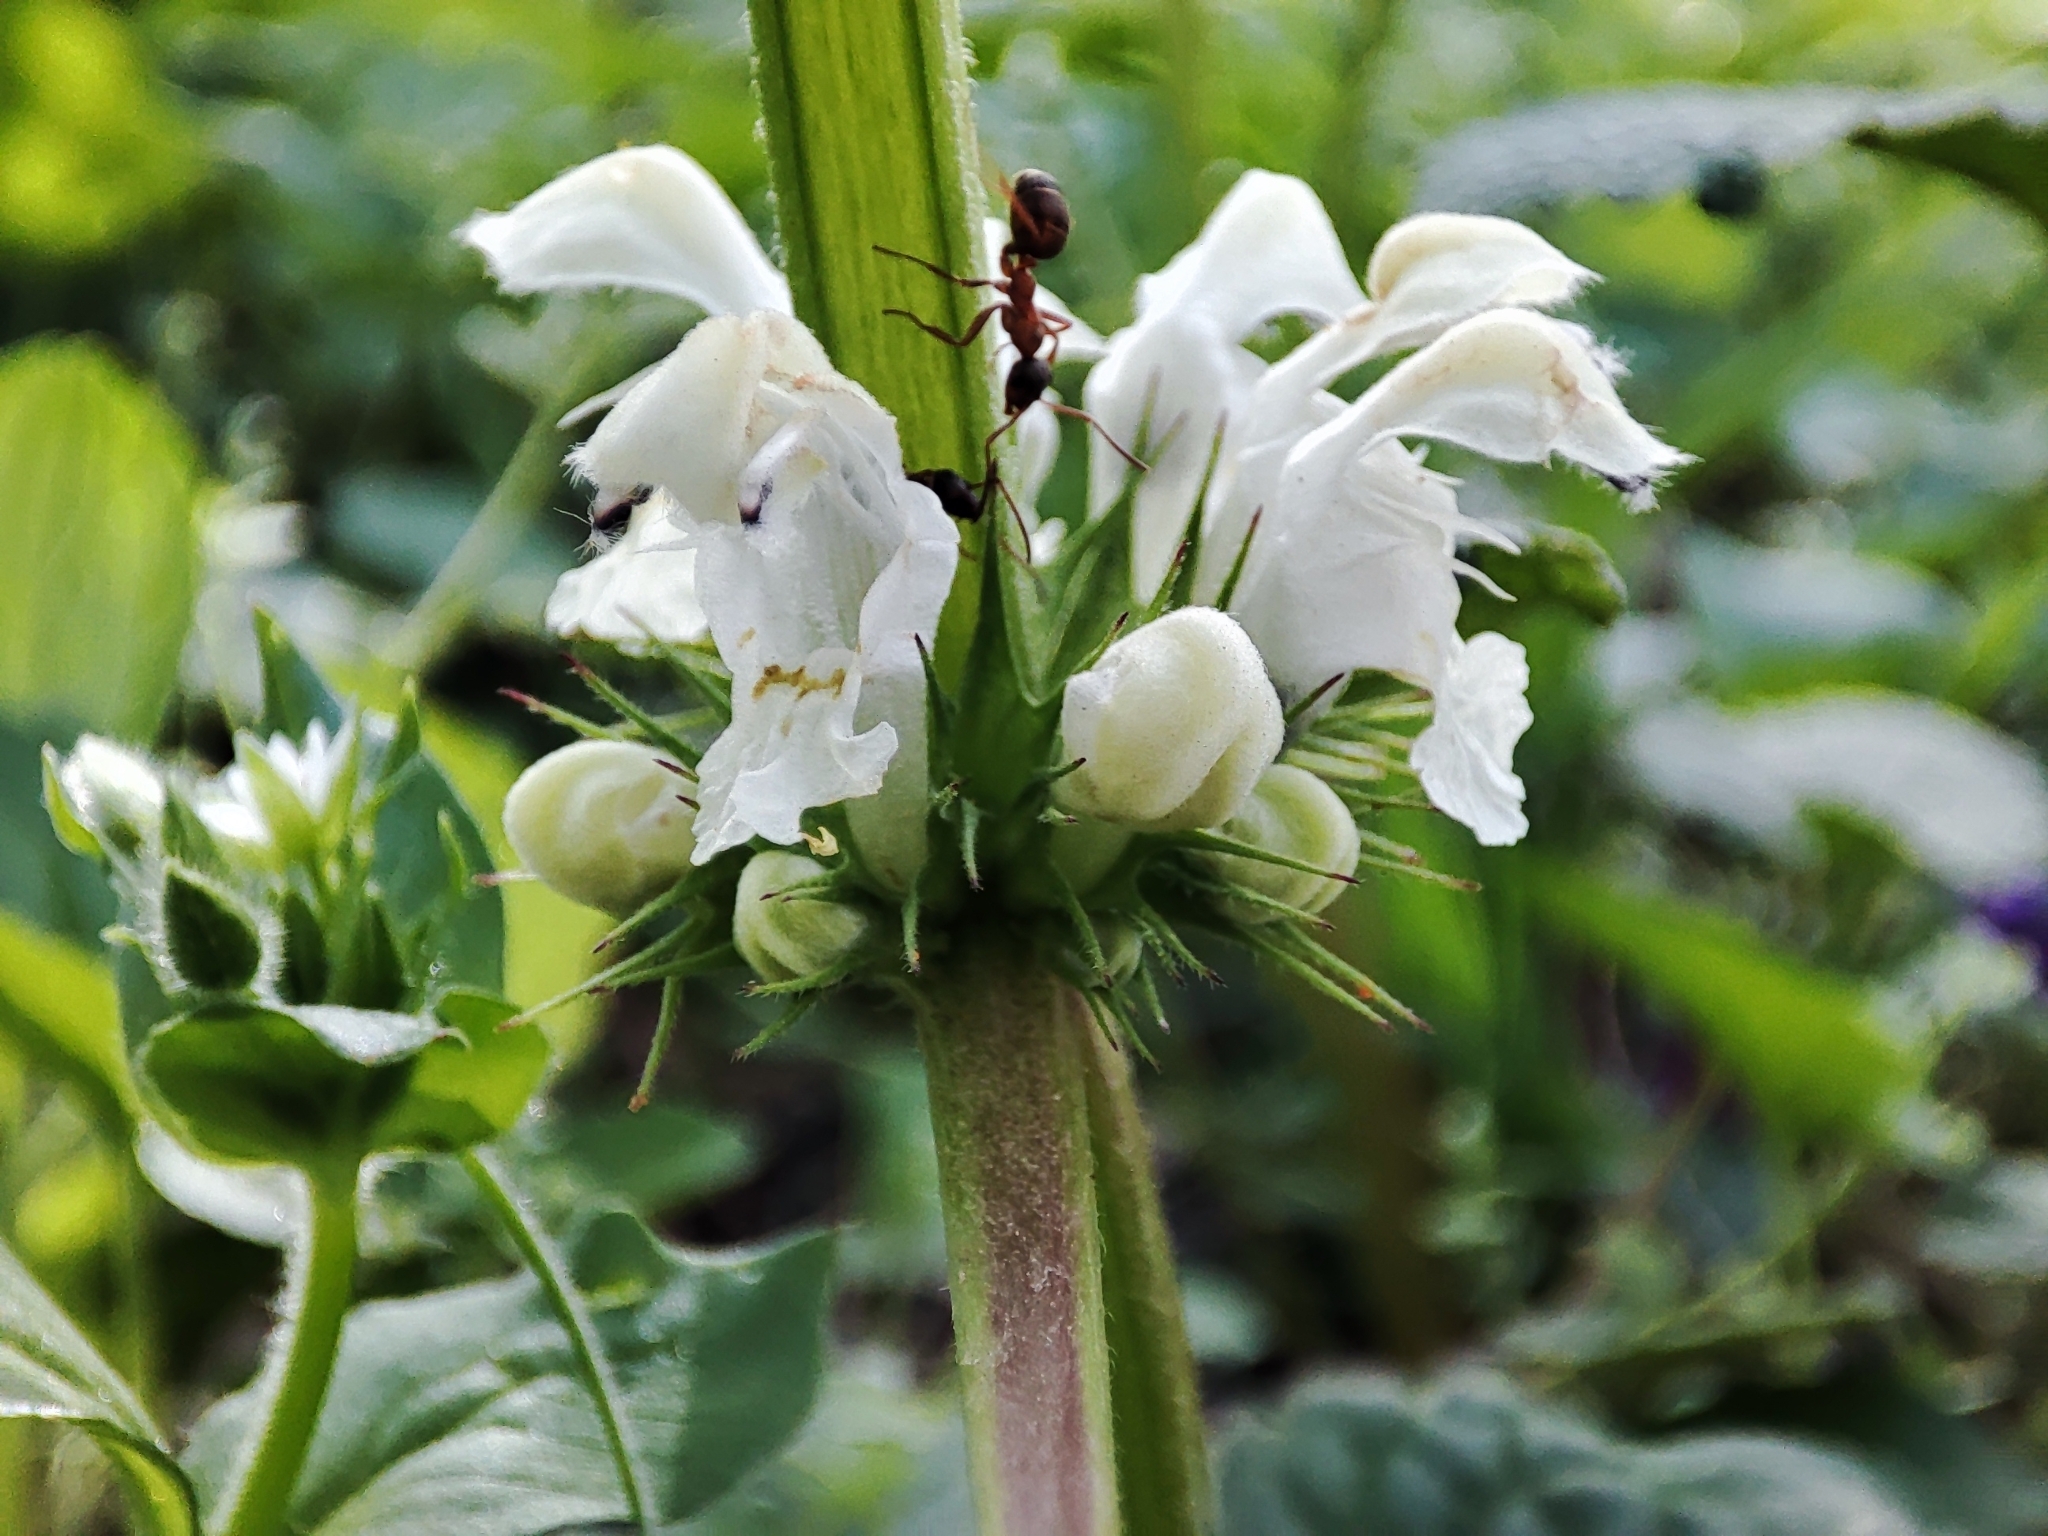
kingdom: Plantae
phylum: Tracheophyta
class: Magnoliopsida
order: Lamiales
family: Lamiaceae
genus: Lamium
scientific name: Lamium album
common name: White dead-nettle
